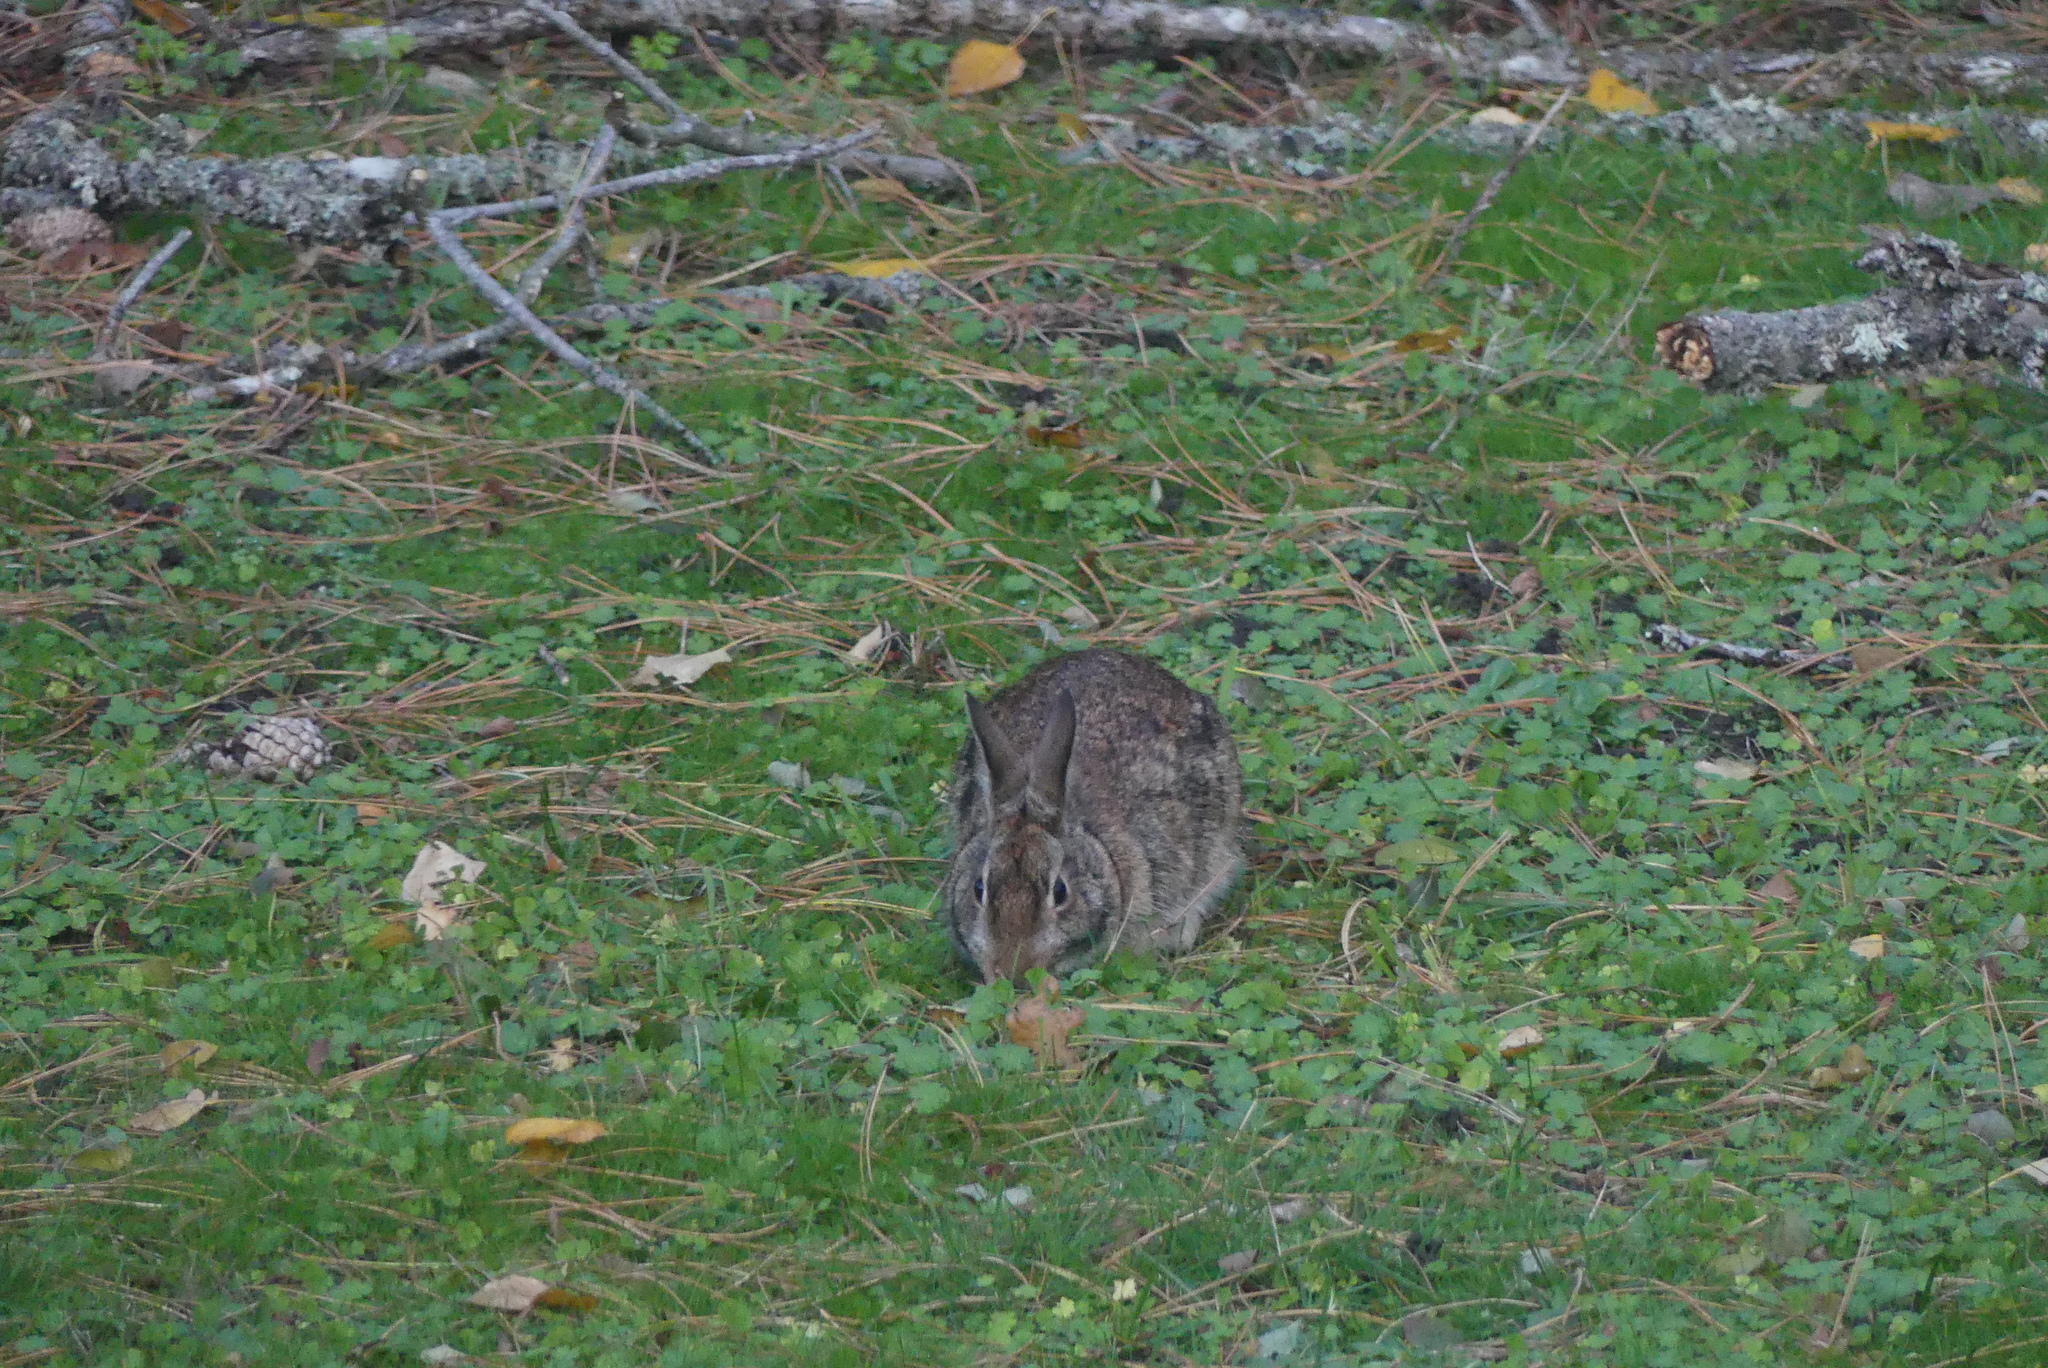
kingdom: Animalia
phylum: Chordata
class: Mammalia
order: Lagomorpha
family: Leporidae
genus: Sylvilagus
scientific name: Sylvilagus floridanus
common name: Eastern cottontail
